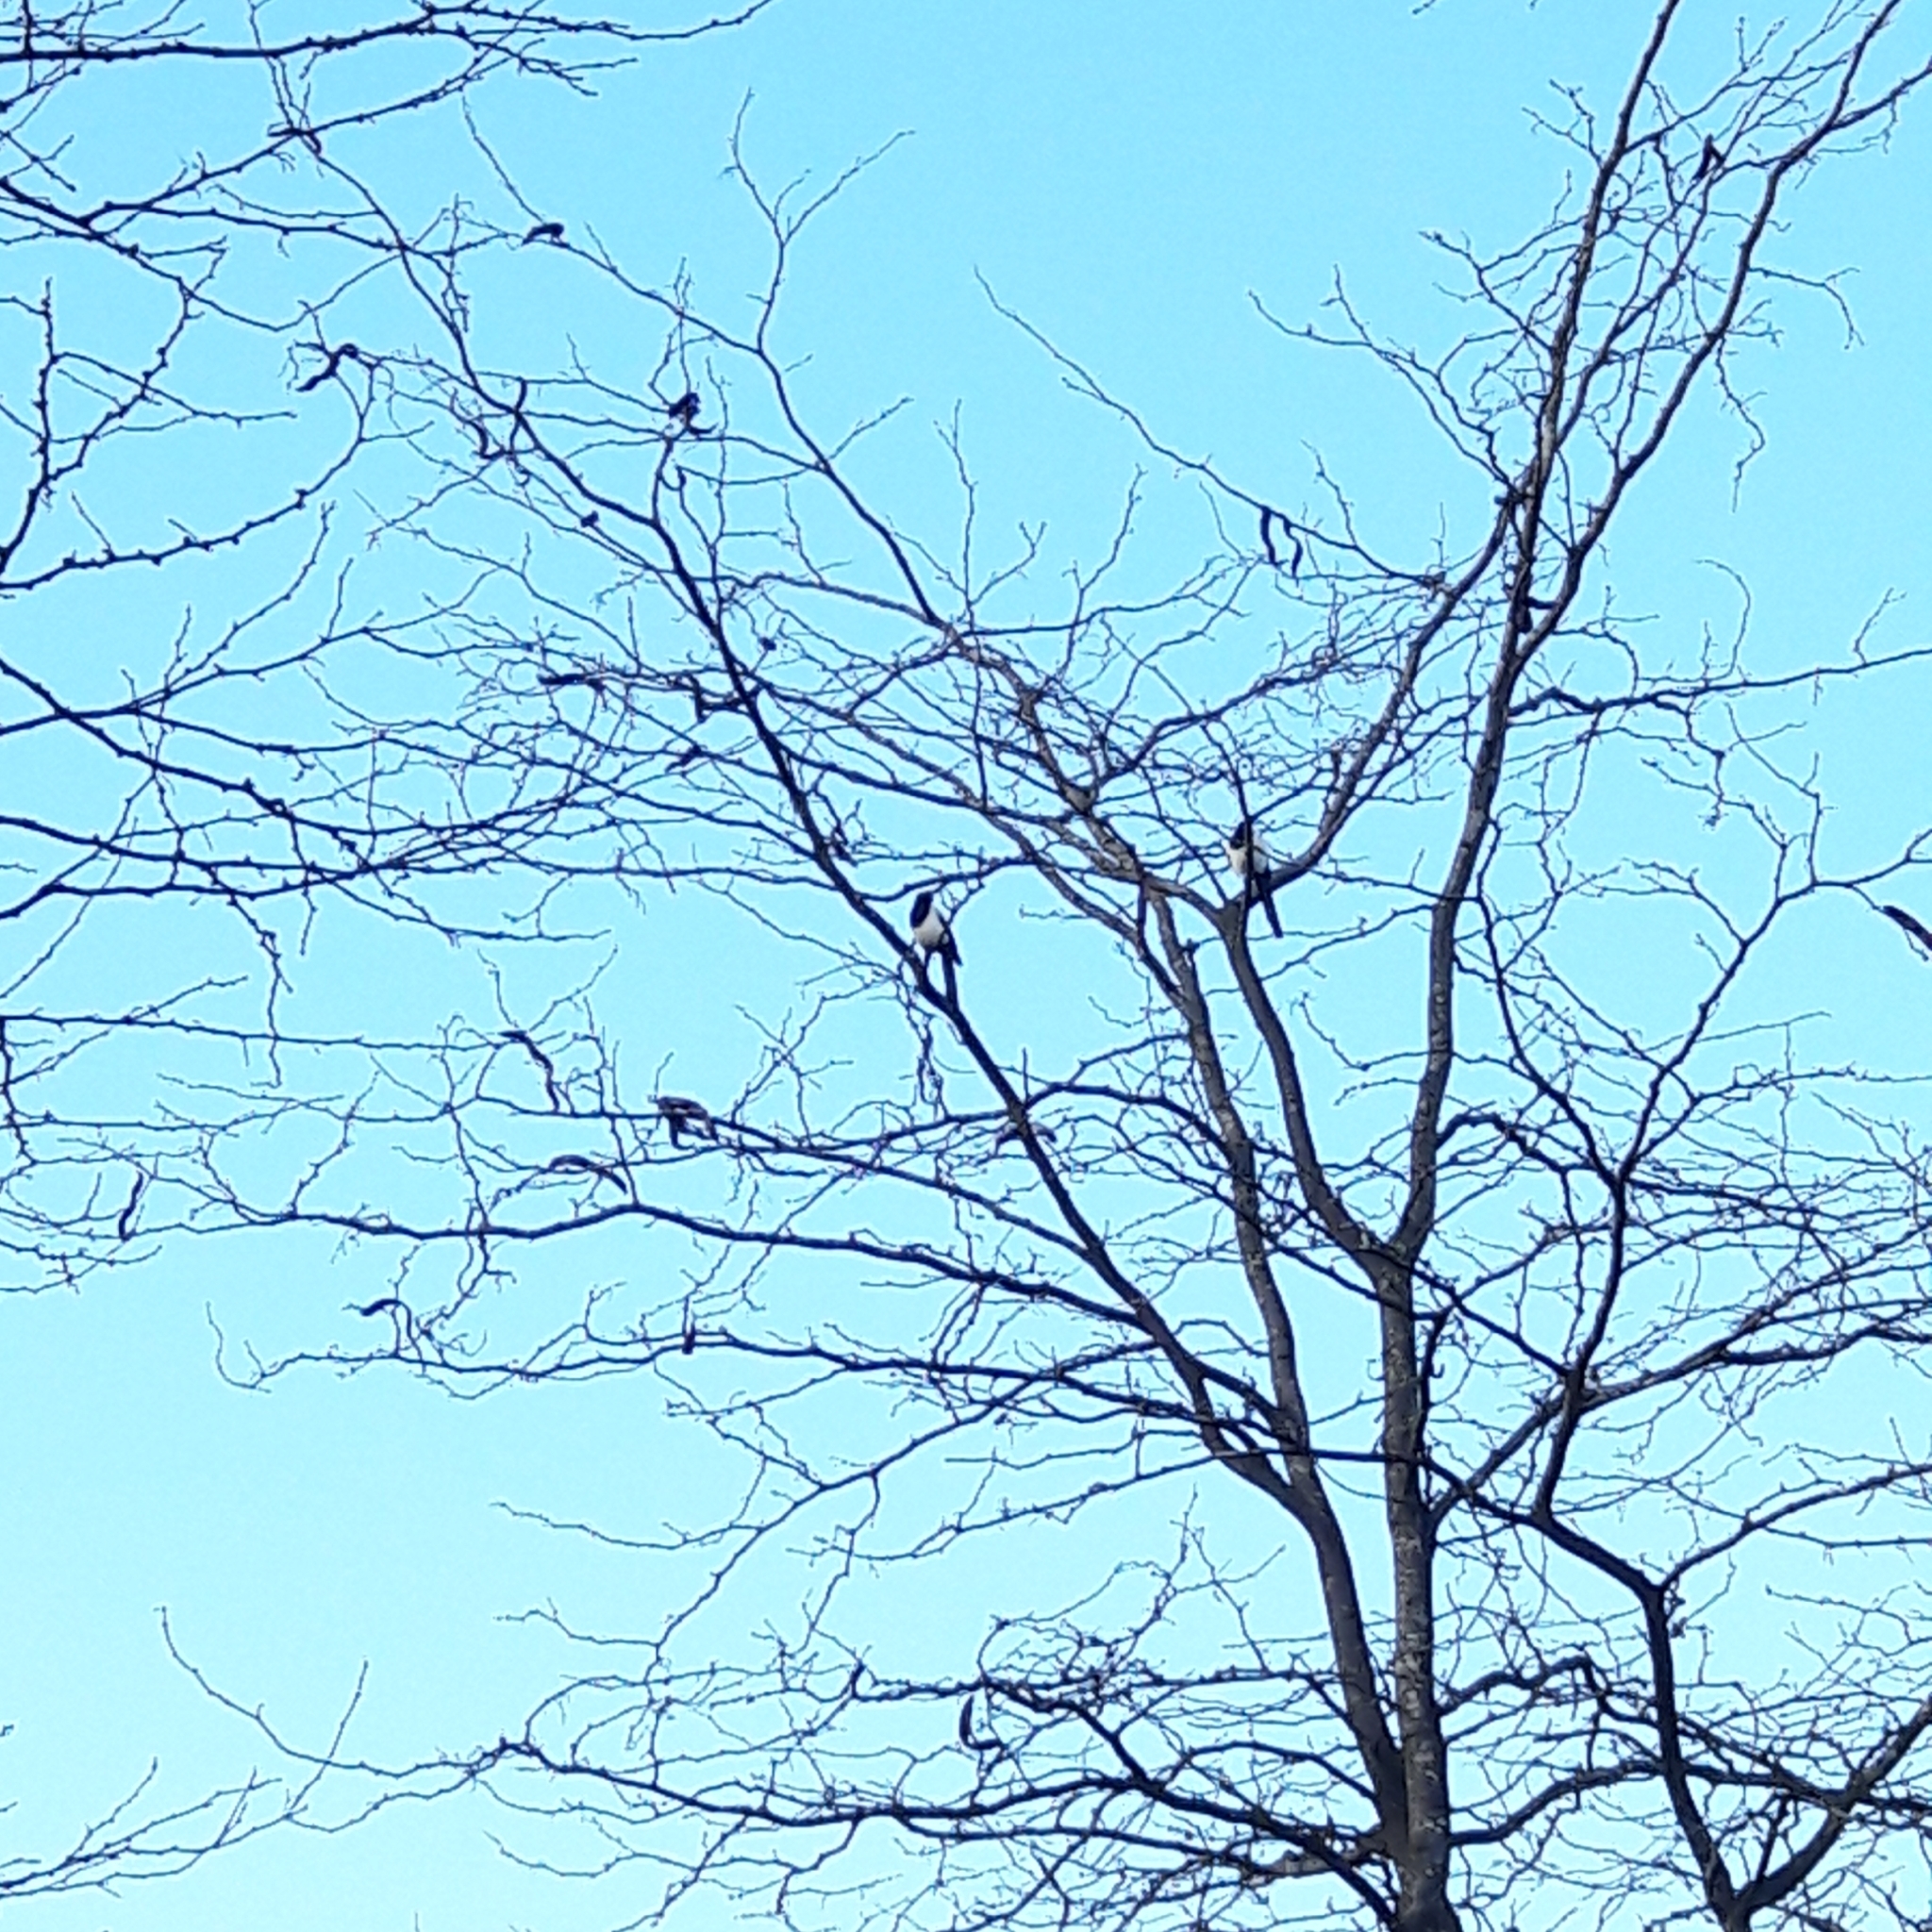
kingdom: Animalia
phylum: Chordata
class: Aves
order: Passeriformes
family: Corvidae
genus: Pica
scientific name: Pica pica
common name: Eurasian magpie
